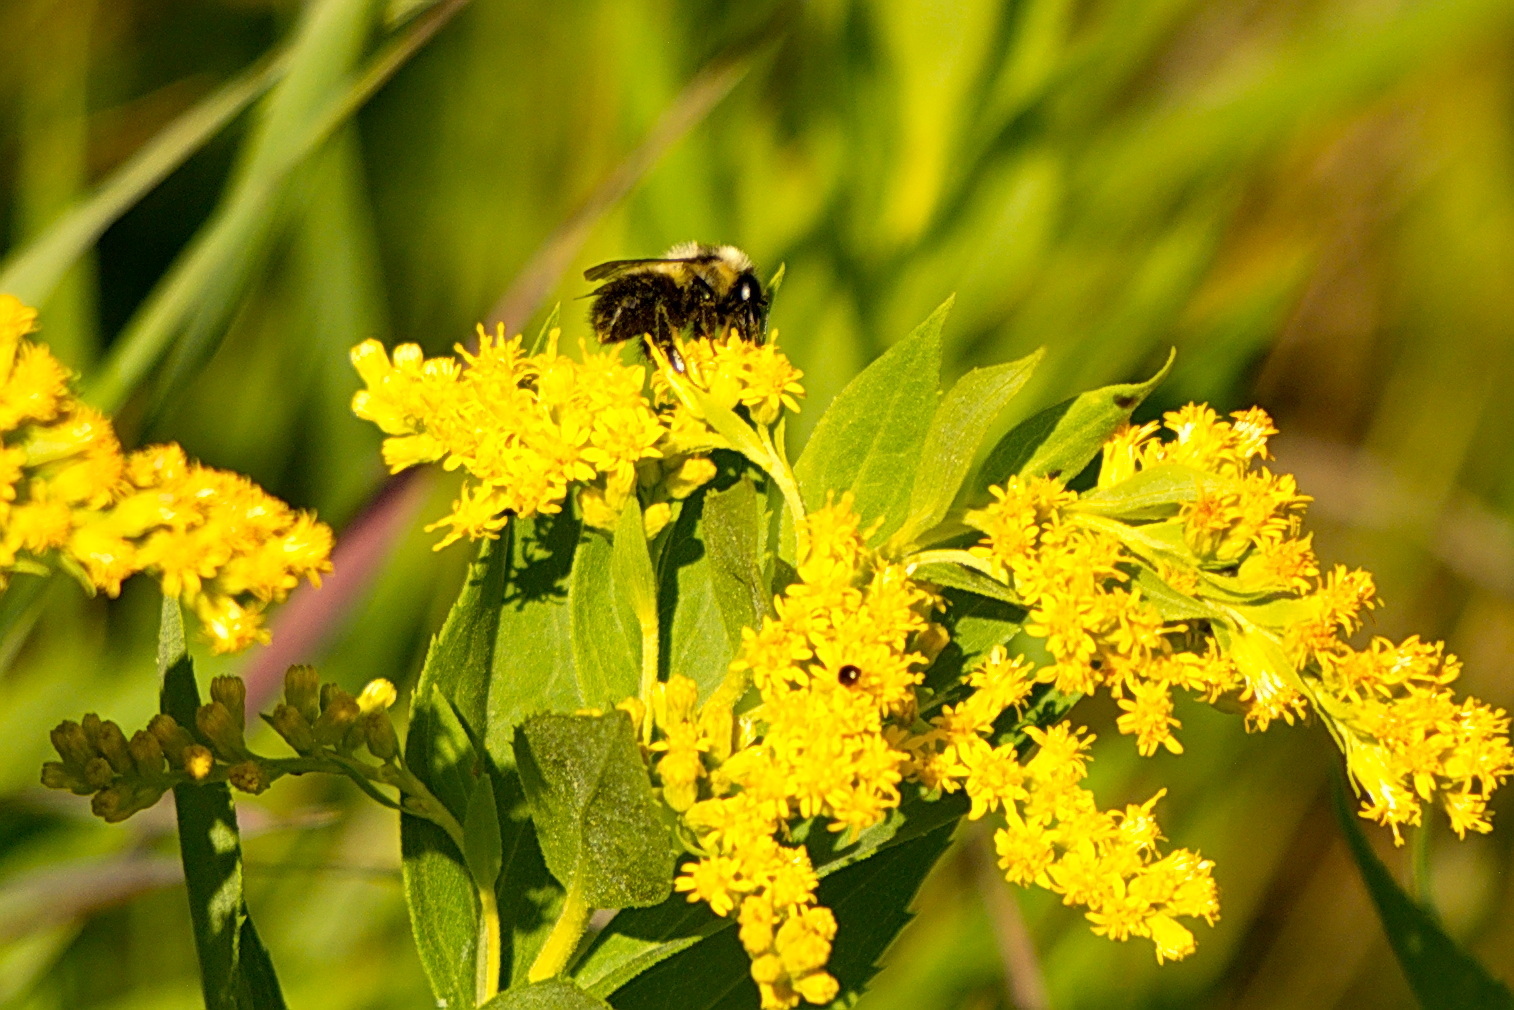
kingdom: Animalia
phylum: Arthropoda
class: Insecta
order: Hymenoptera
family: Apidae
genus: Bombus
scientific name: Bombus rufocinctus
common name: Red-belted bumble bee
